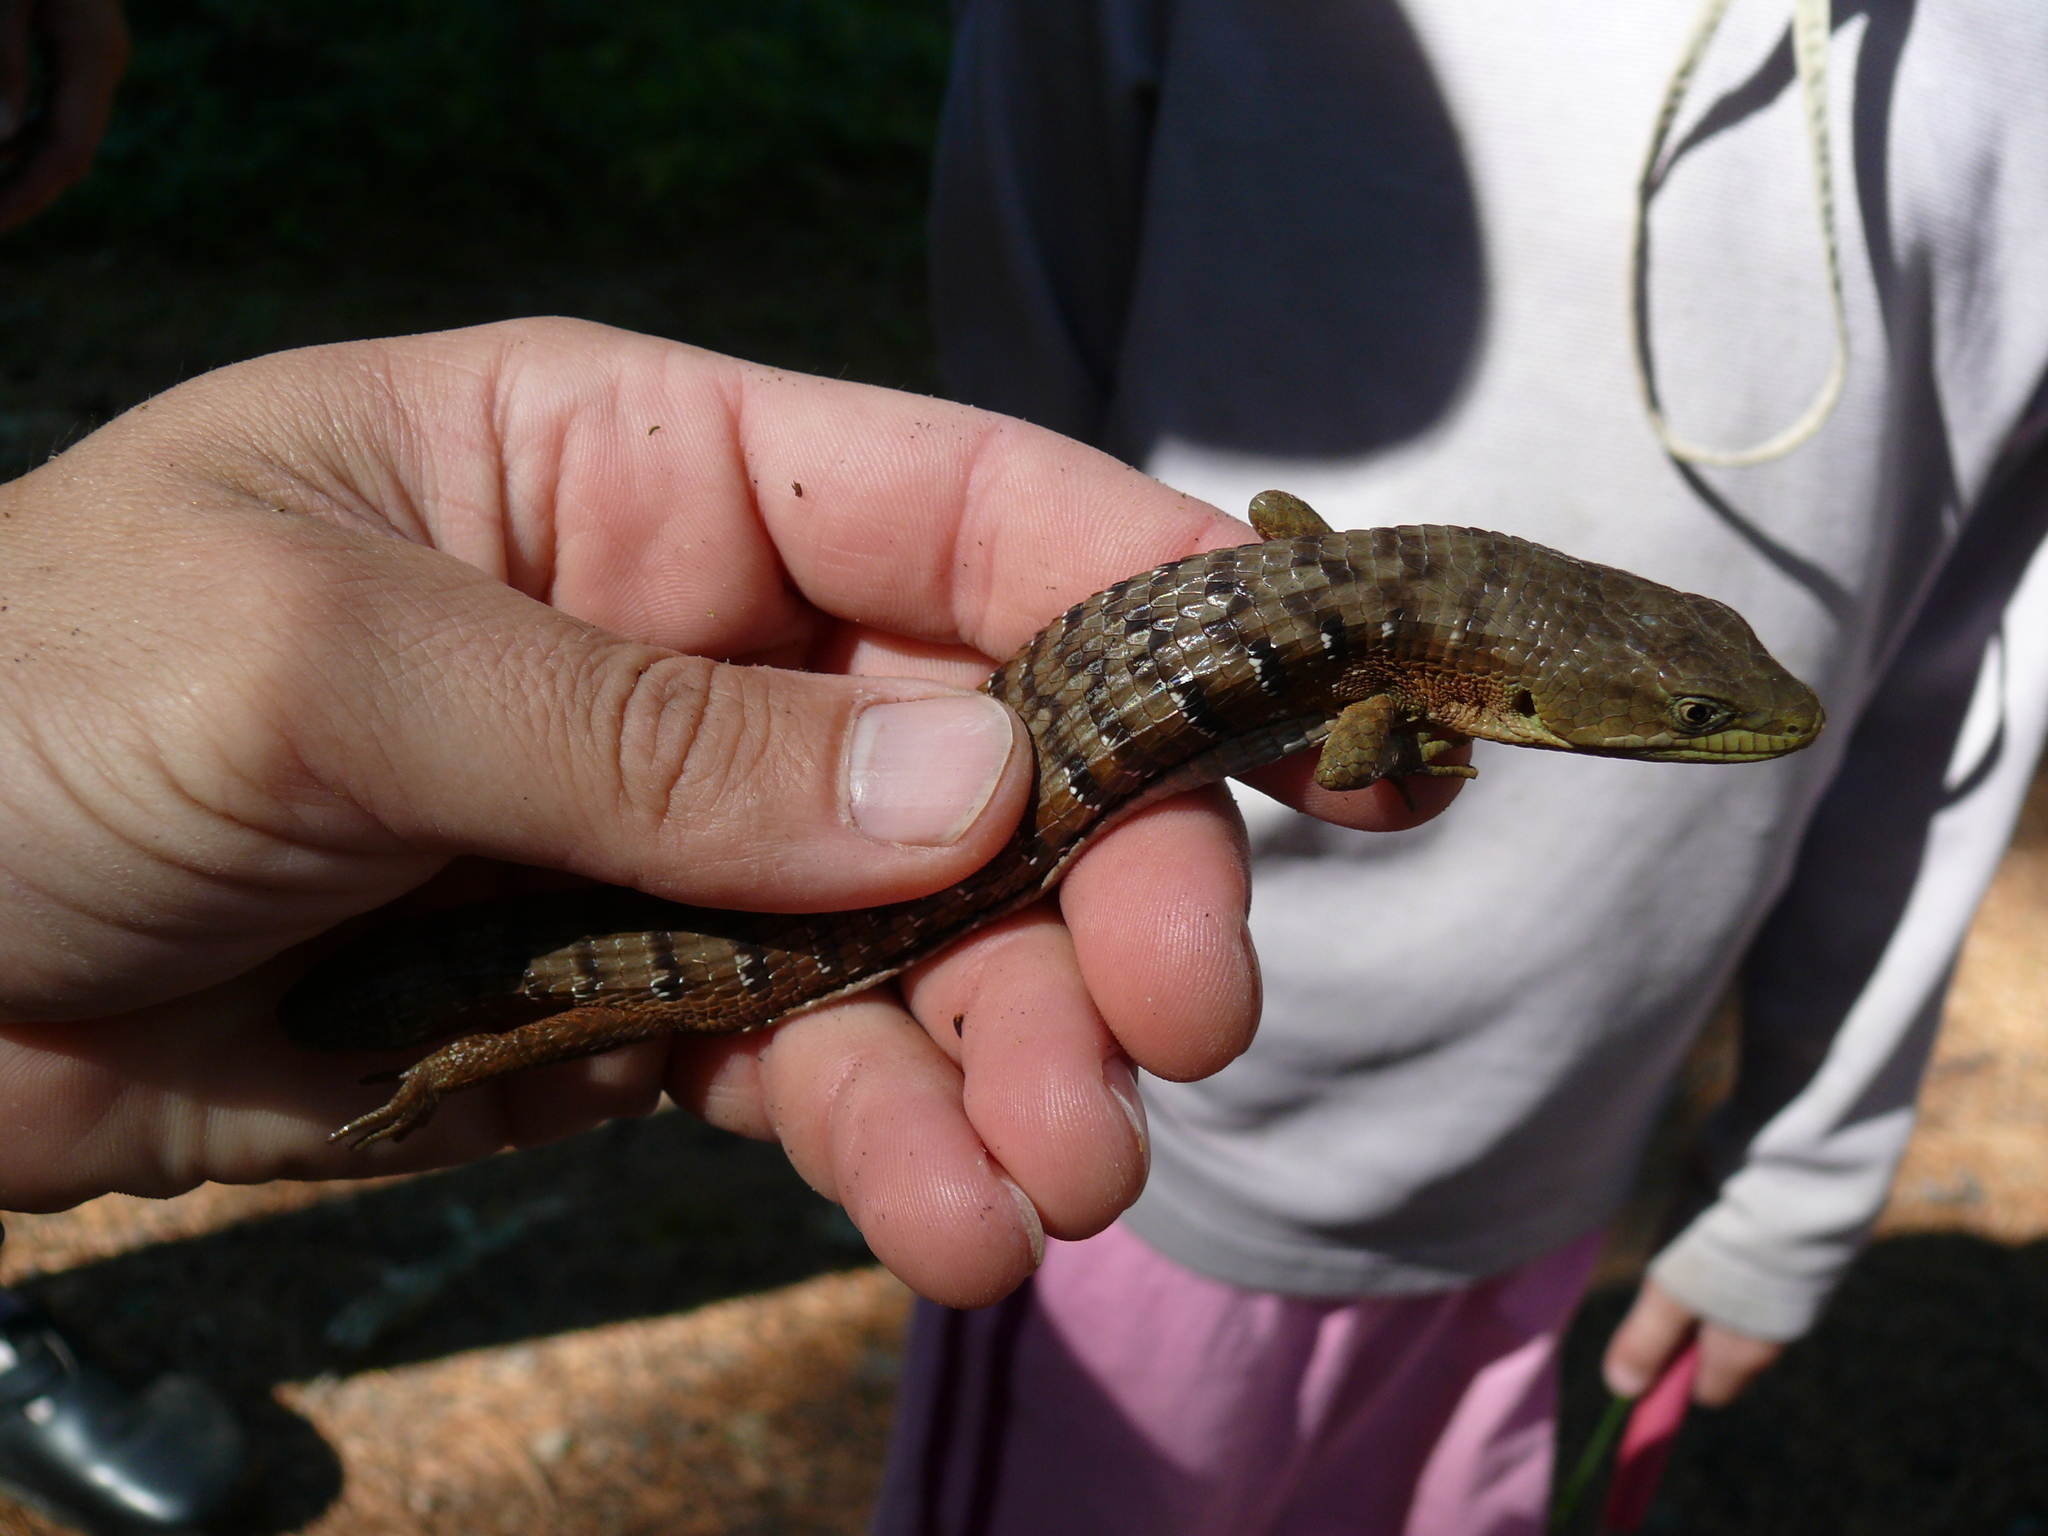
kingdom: Animalia
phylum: Chordata
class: Squamata
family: Anguidae
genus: Elgaria
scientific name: Elgaria multicarinata
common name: Southern alligator lizard
